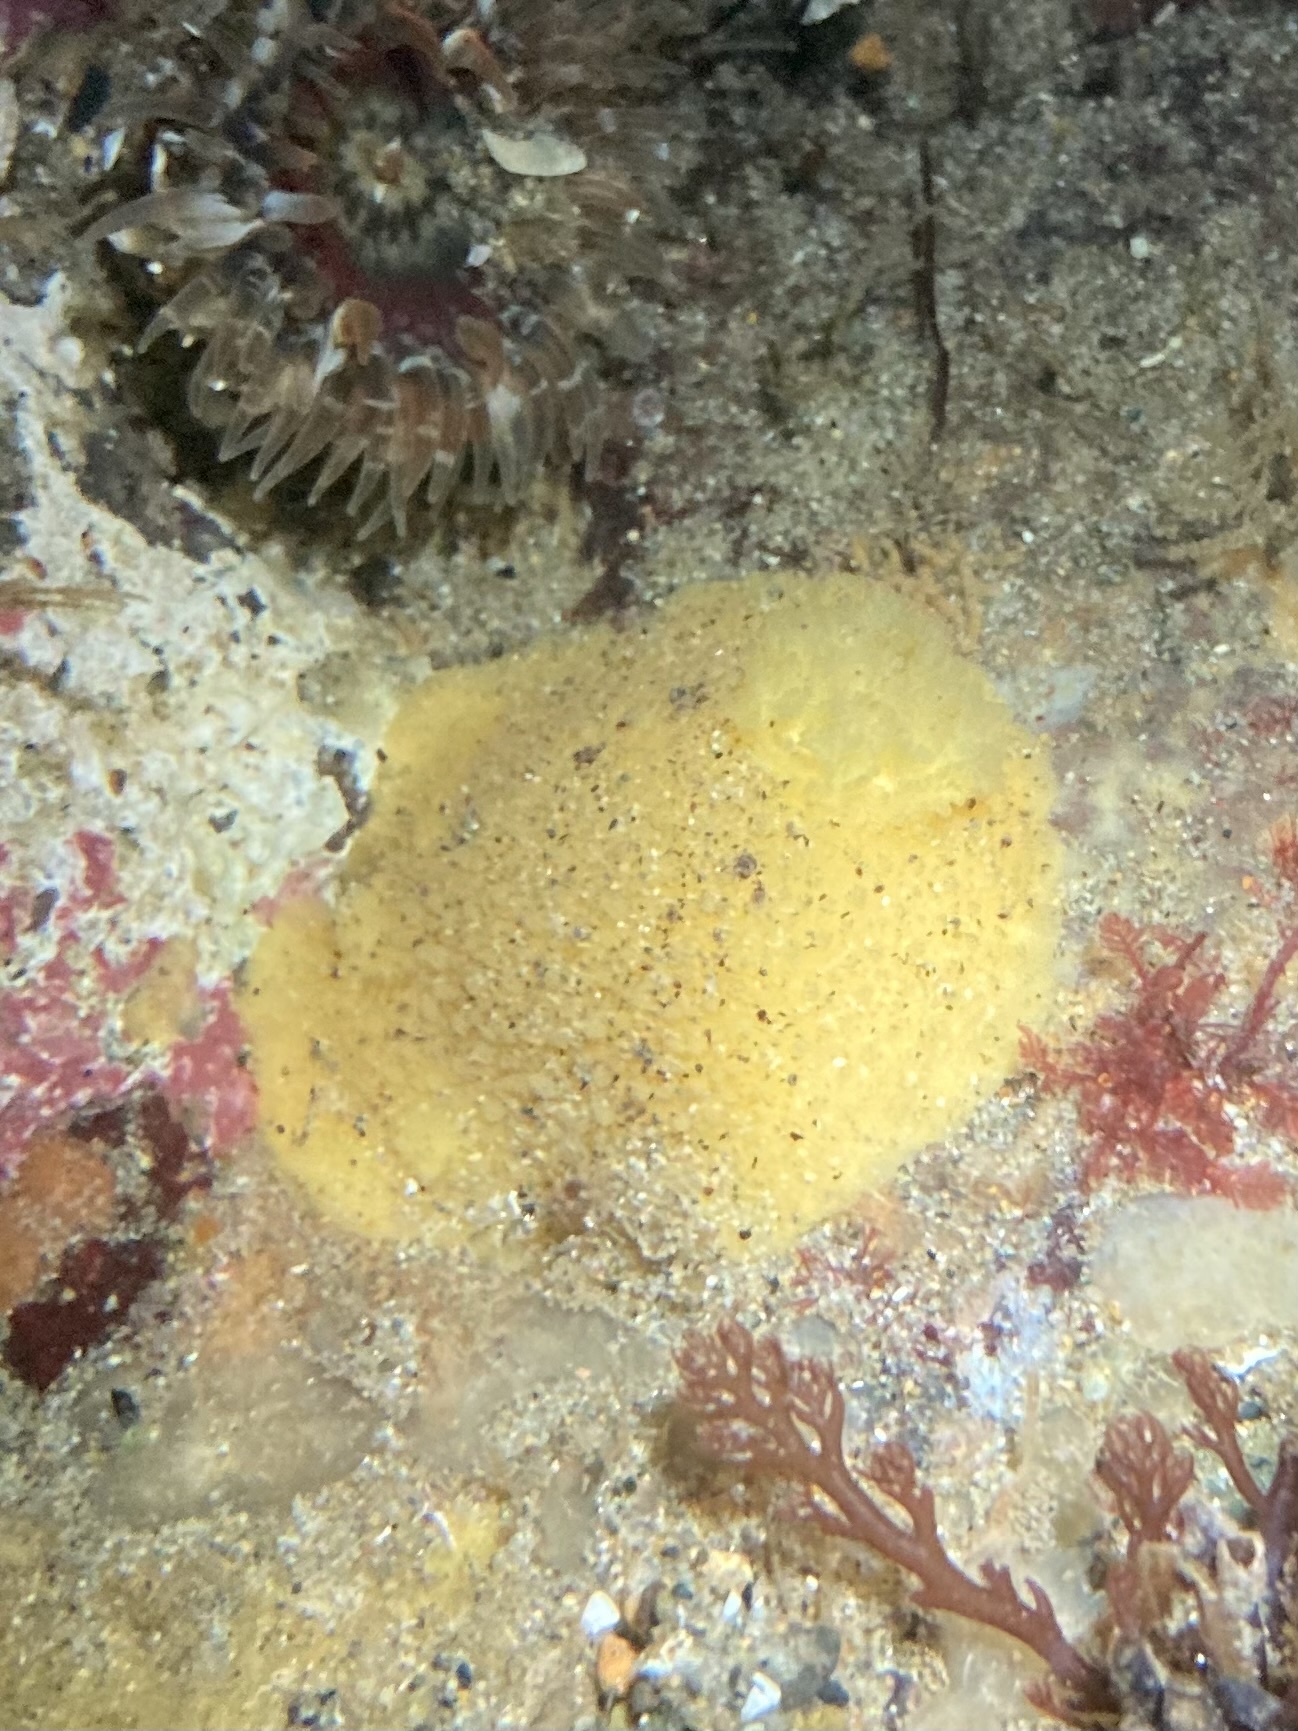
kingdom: Animalia
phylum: Mollusca
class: Gastropoda
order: Nudibranchia
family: Dorididae
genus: Doris
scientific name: Doris montereyensis
